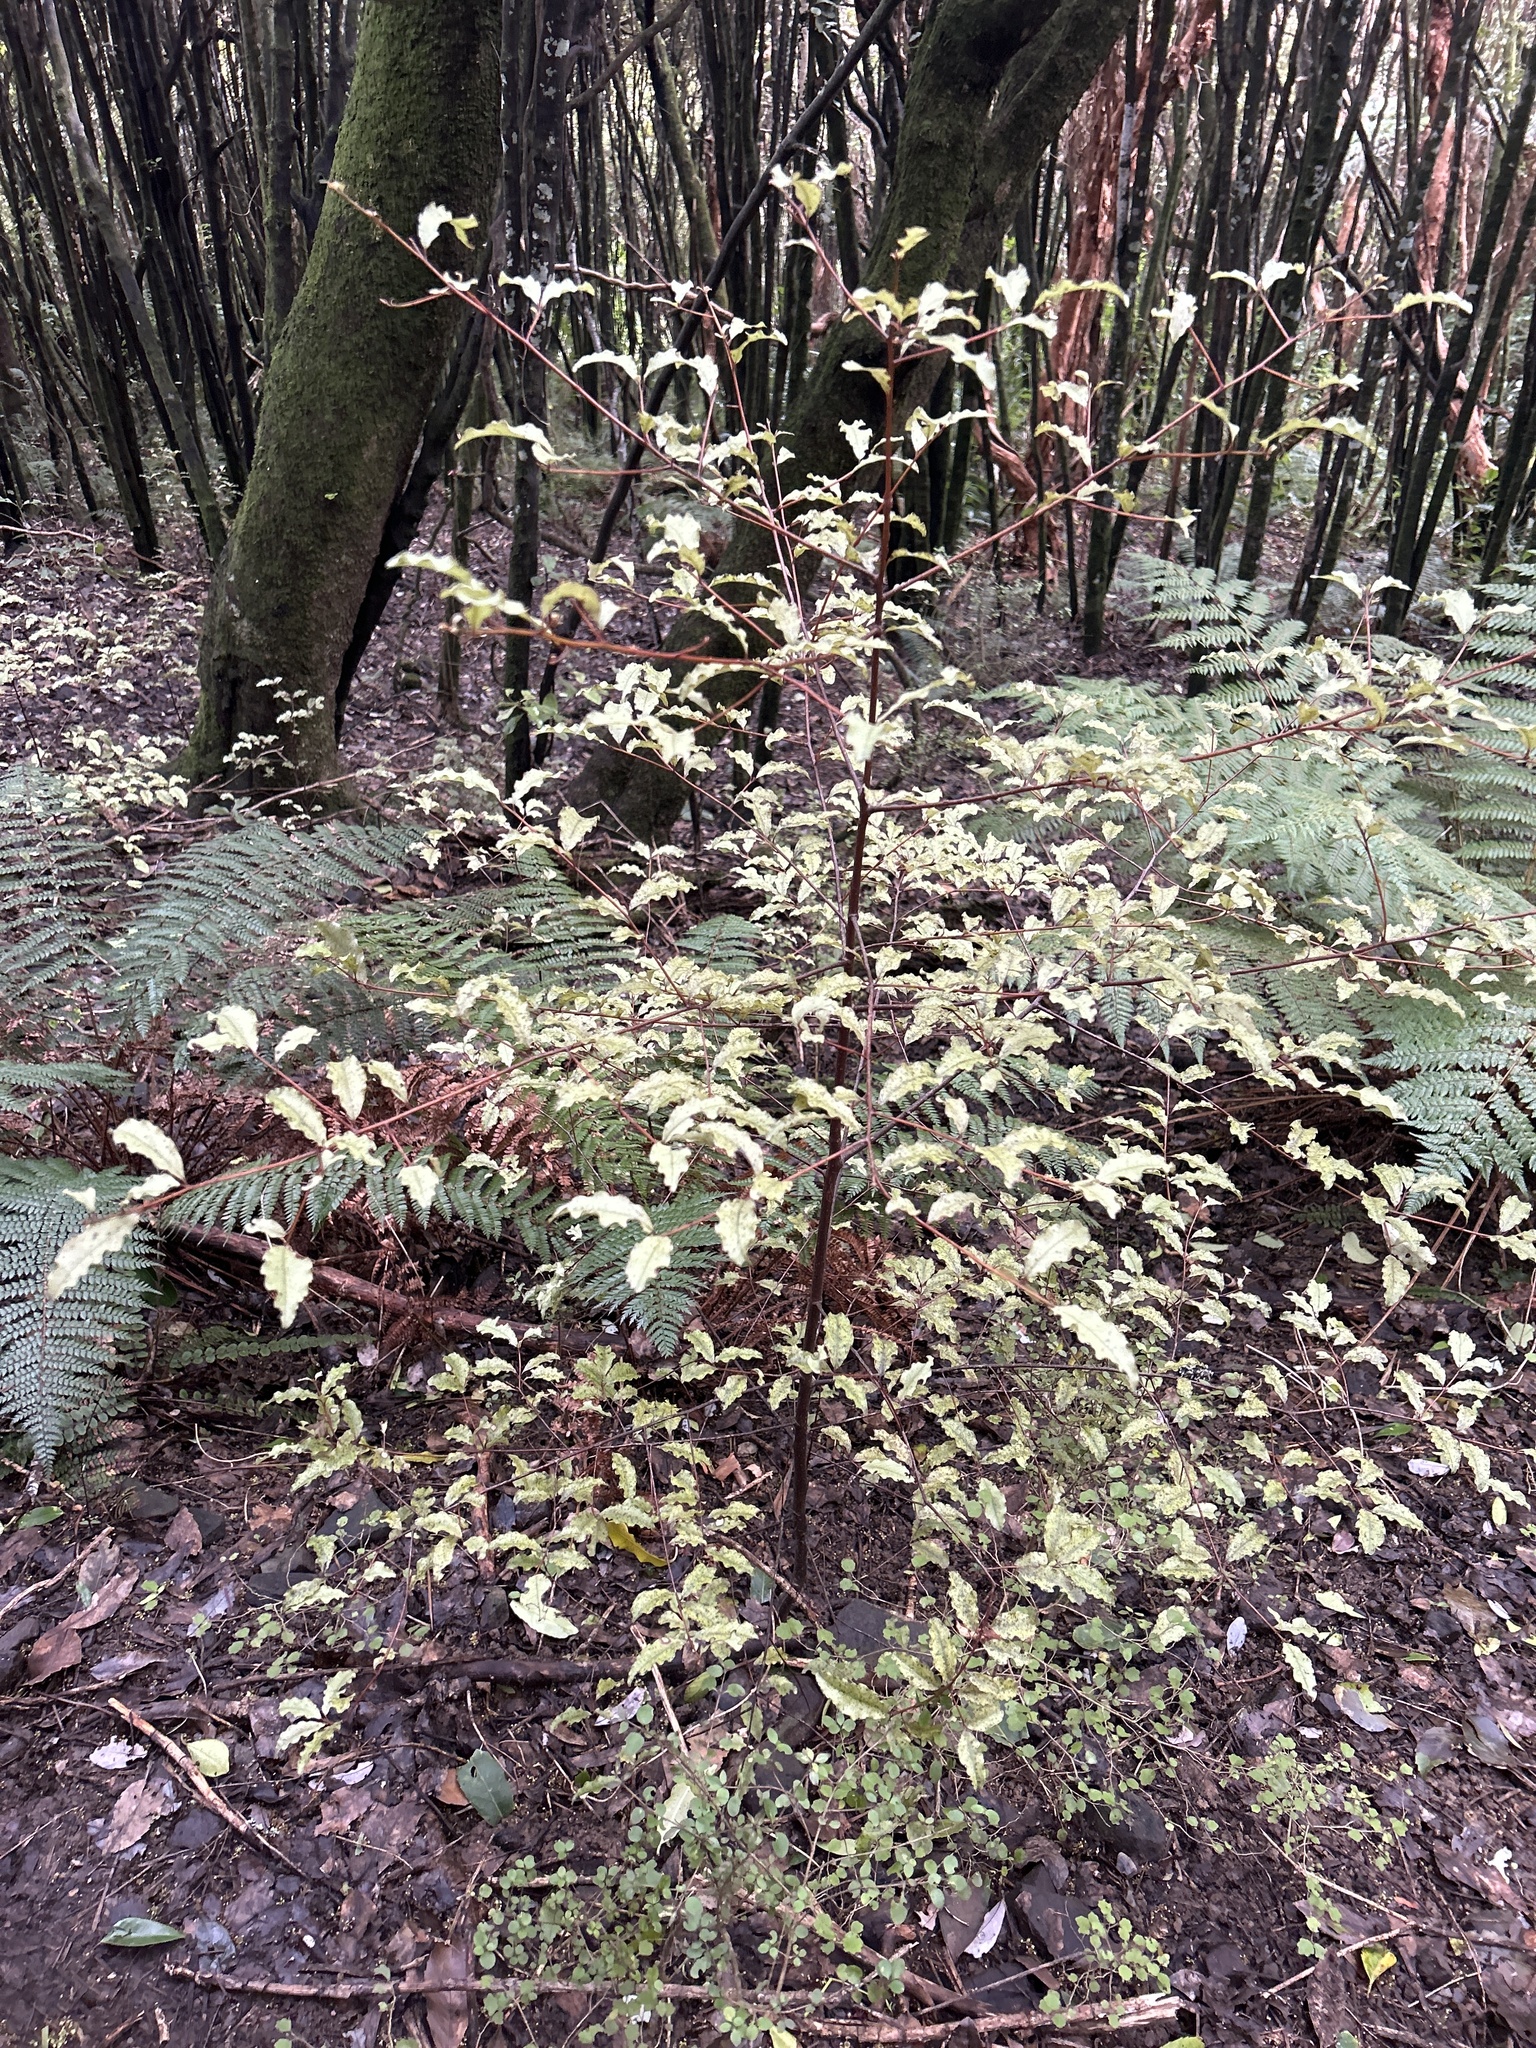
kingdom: Plantae
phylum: Tracheophyta
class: Magnoliopsida
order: Ericales
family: Primulaceae
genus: Myrsine
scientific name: Myrsine australis
